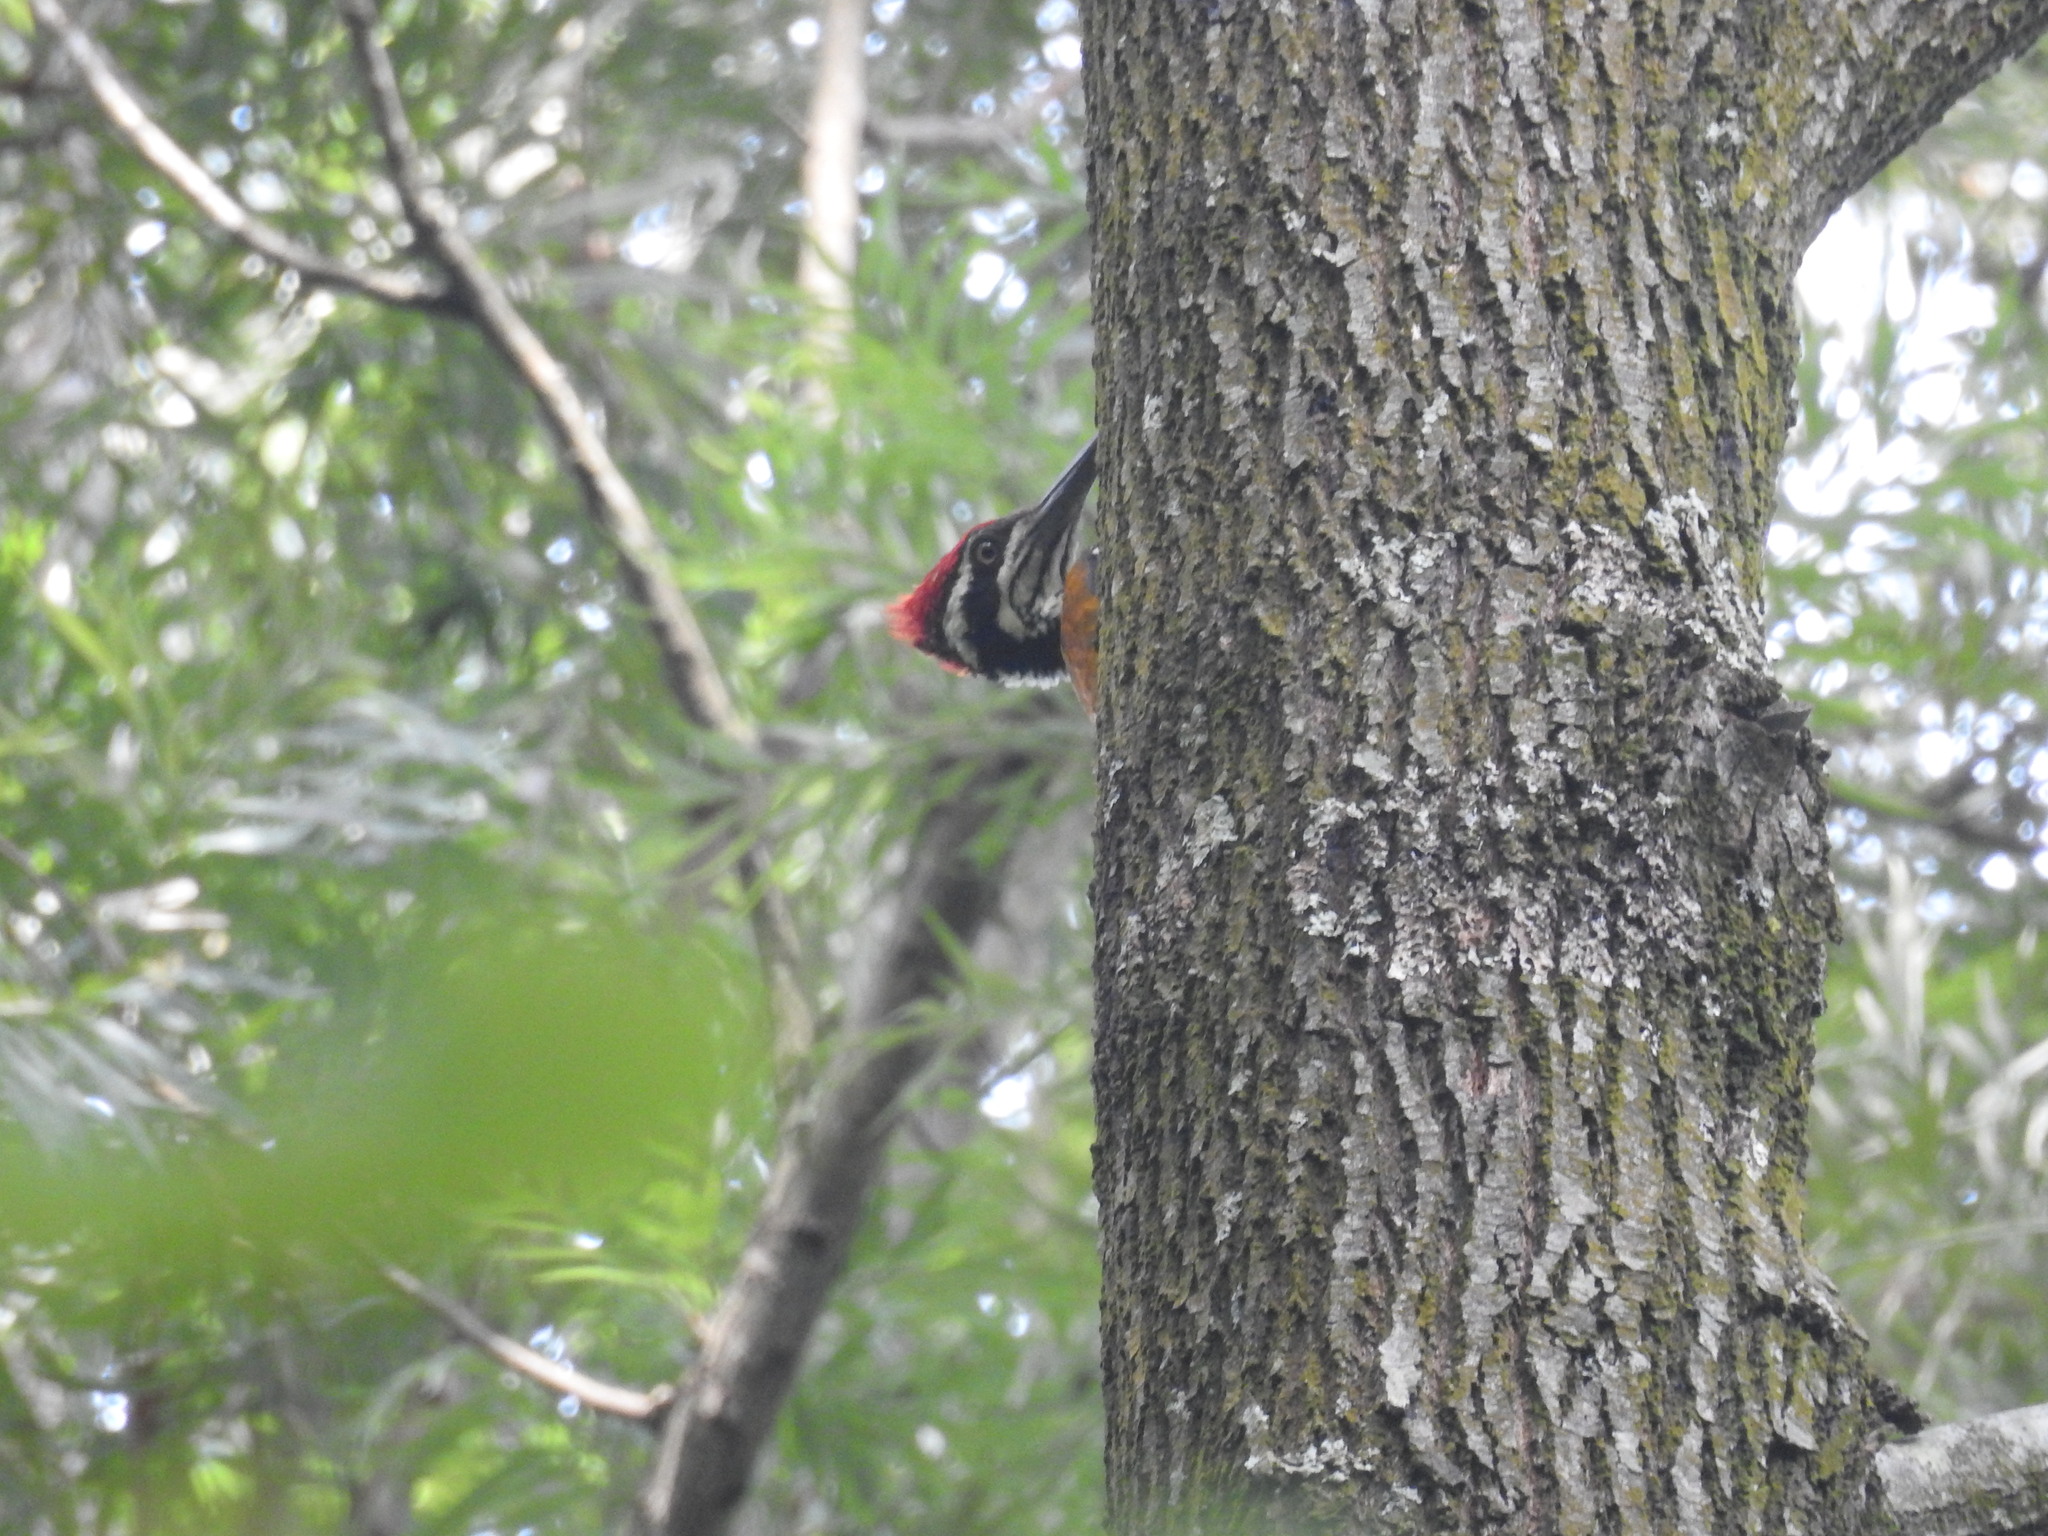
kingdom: Animalia
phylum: Chordata
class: Aves
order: Piciformes
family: Picidae
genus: Chrysocolaptes
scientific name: Chrysocolaptes guttacristatus
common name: Greater flameback
